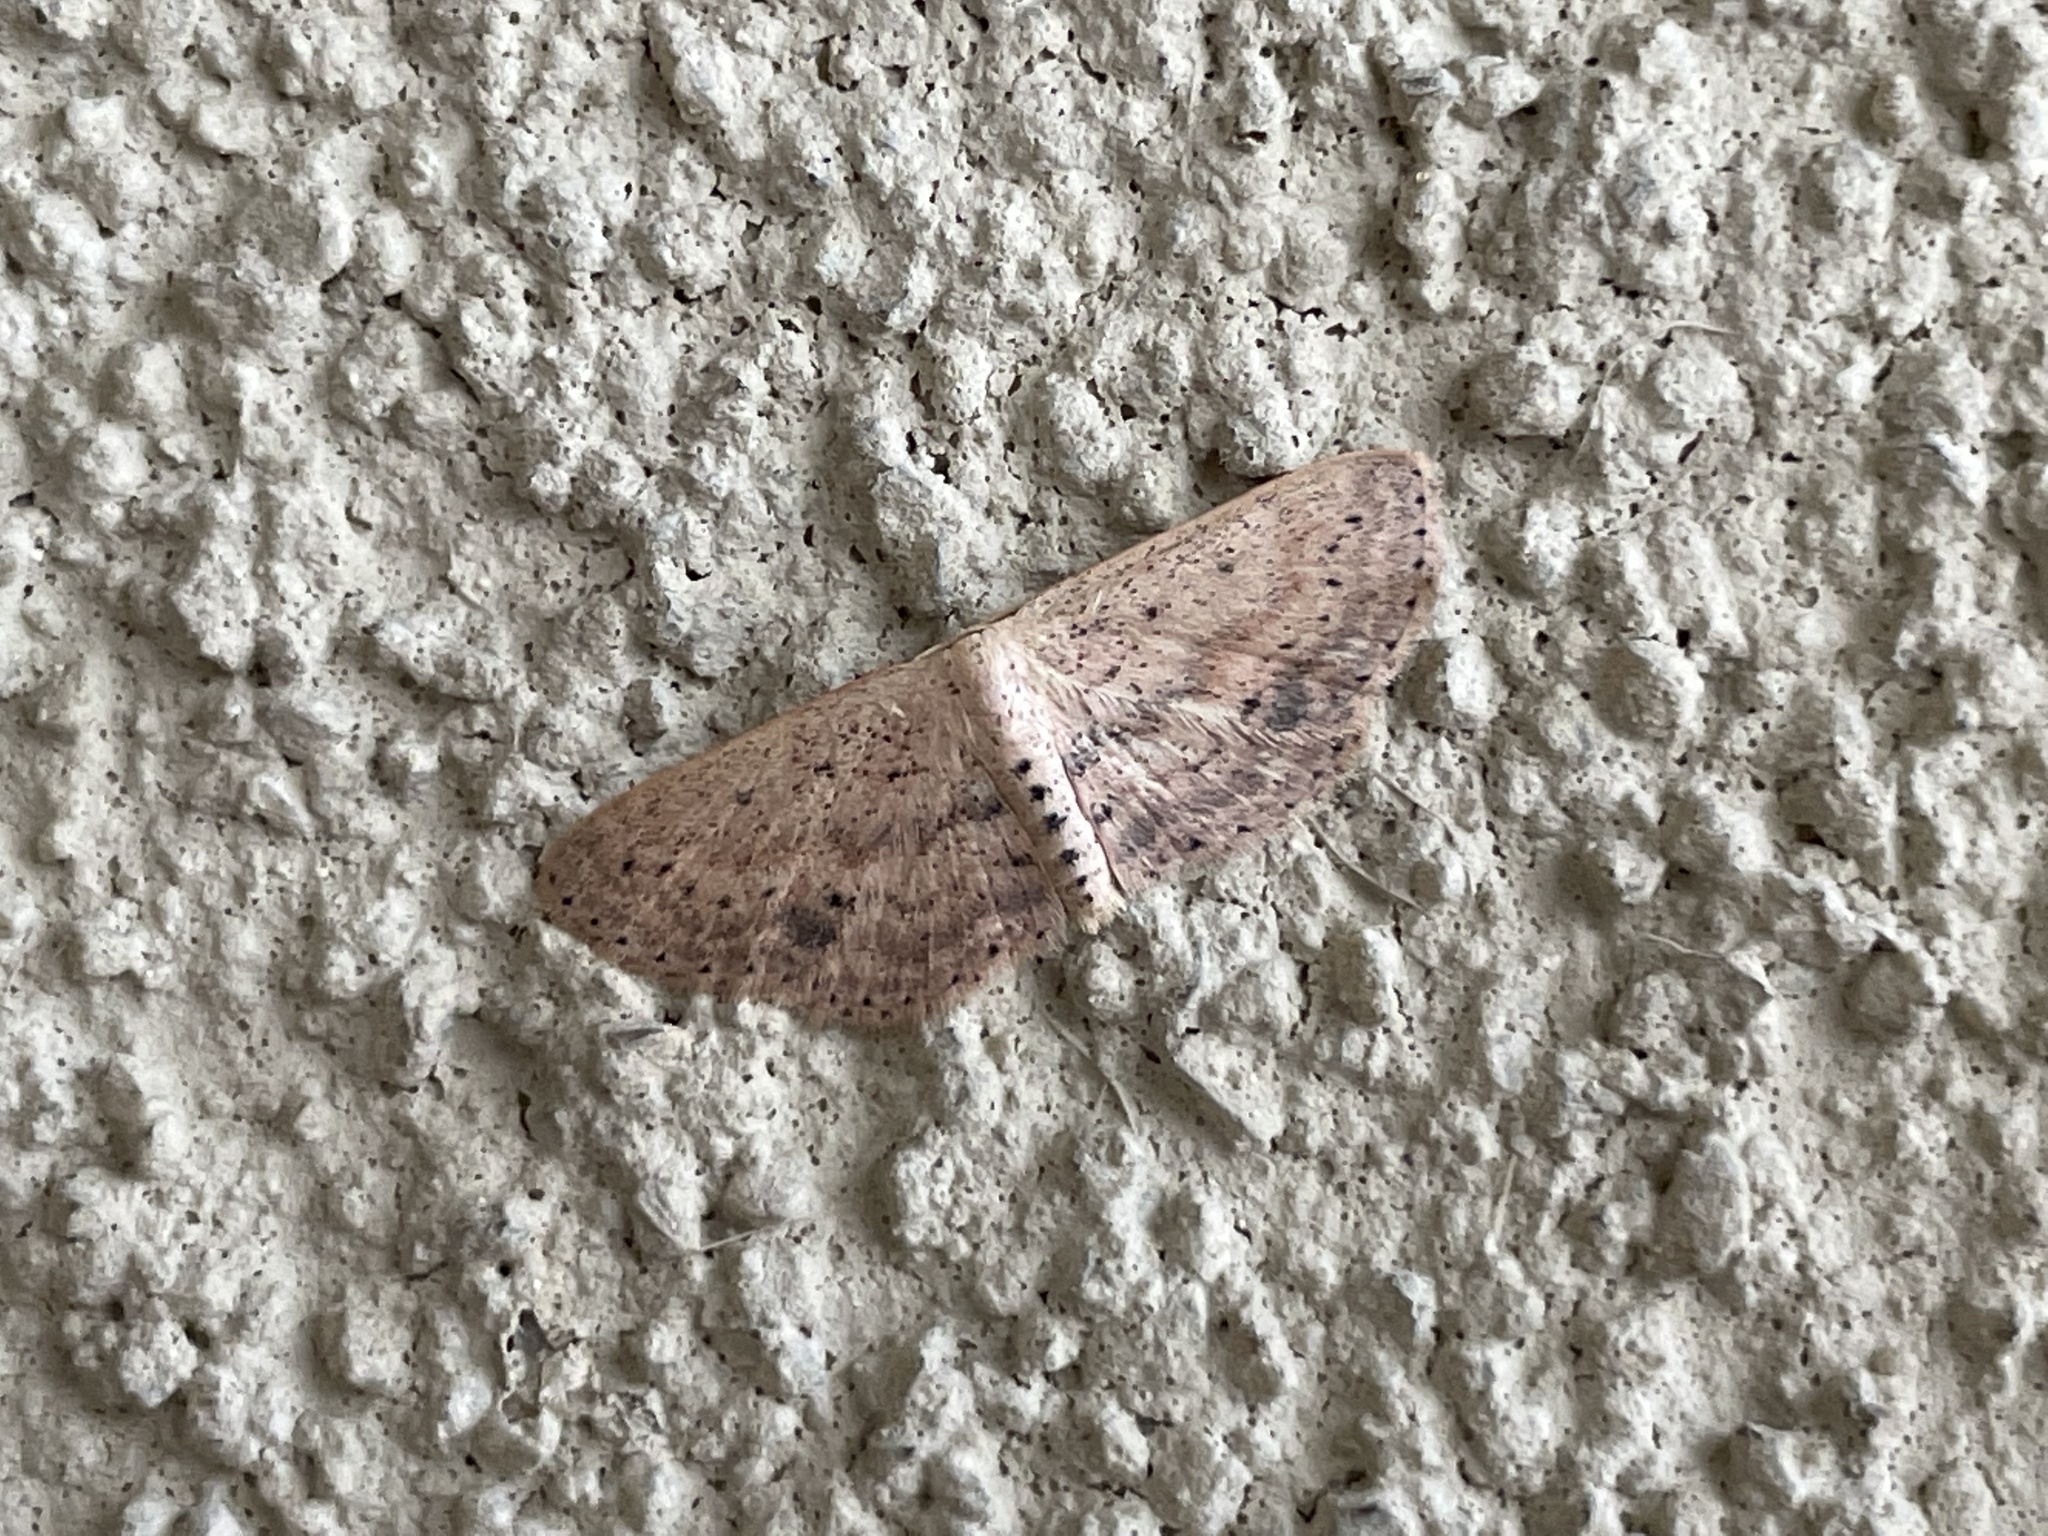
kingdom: Animalia
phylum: Arthropoda
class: Insecta
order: Lepidoptera
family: Geometridae
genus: Scopula
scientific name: Scopula aemulata
